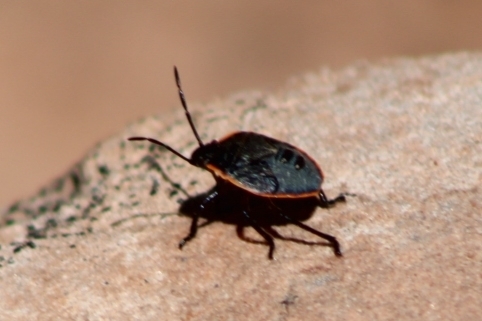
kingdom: Animalia
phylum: Arthropoda
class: Insecta
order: Hemiptera
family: Pentatomidae
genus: Chlorochroa
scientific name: Chlorochroa ligata
